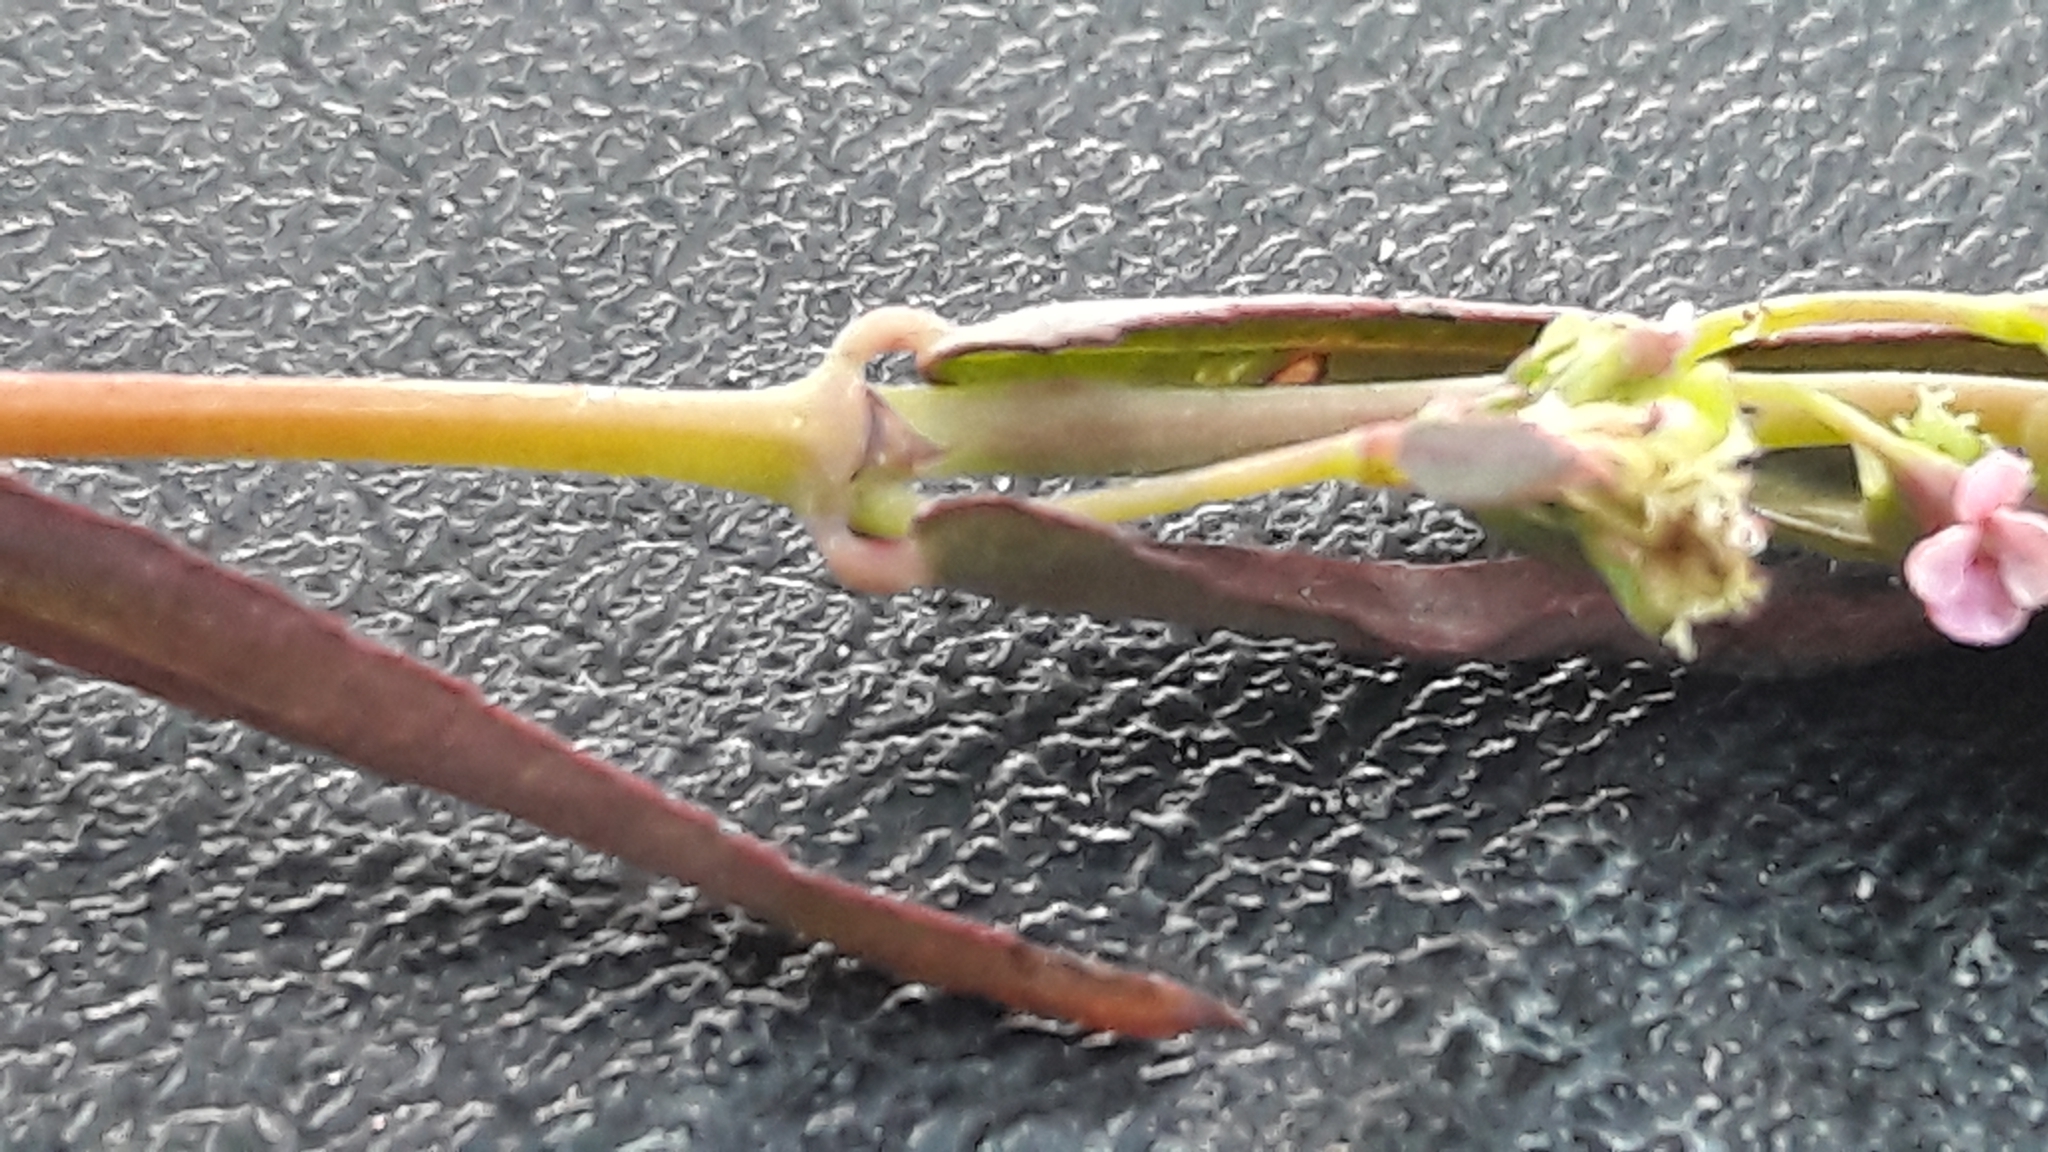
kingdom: Plantae
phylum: Tracheophyta
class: Magnoliopsida
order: Malpighiales
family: Euphorbiaceae
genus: Euphorbia
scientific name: Euphorbia hypericifolia
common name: Graceful sandmat
